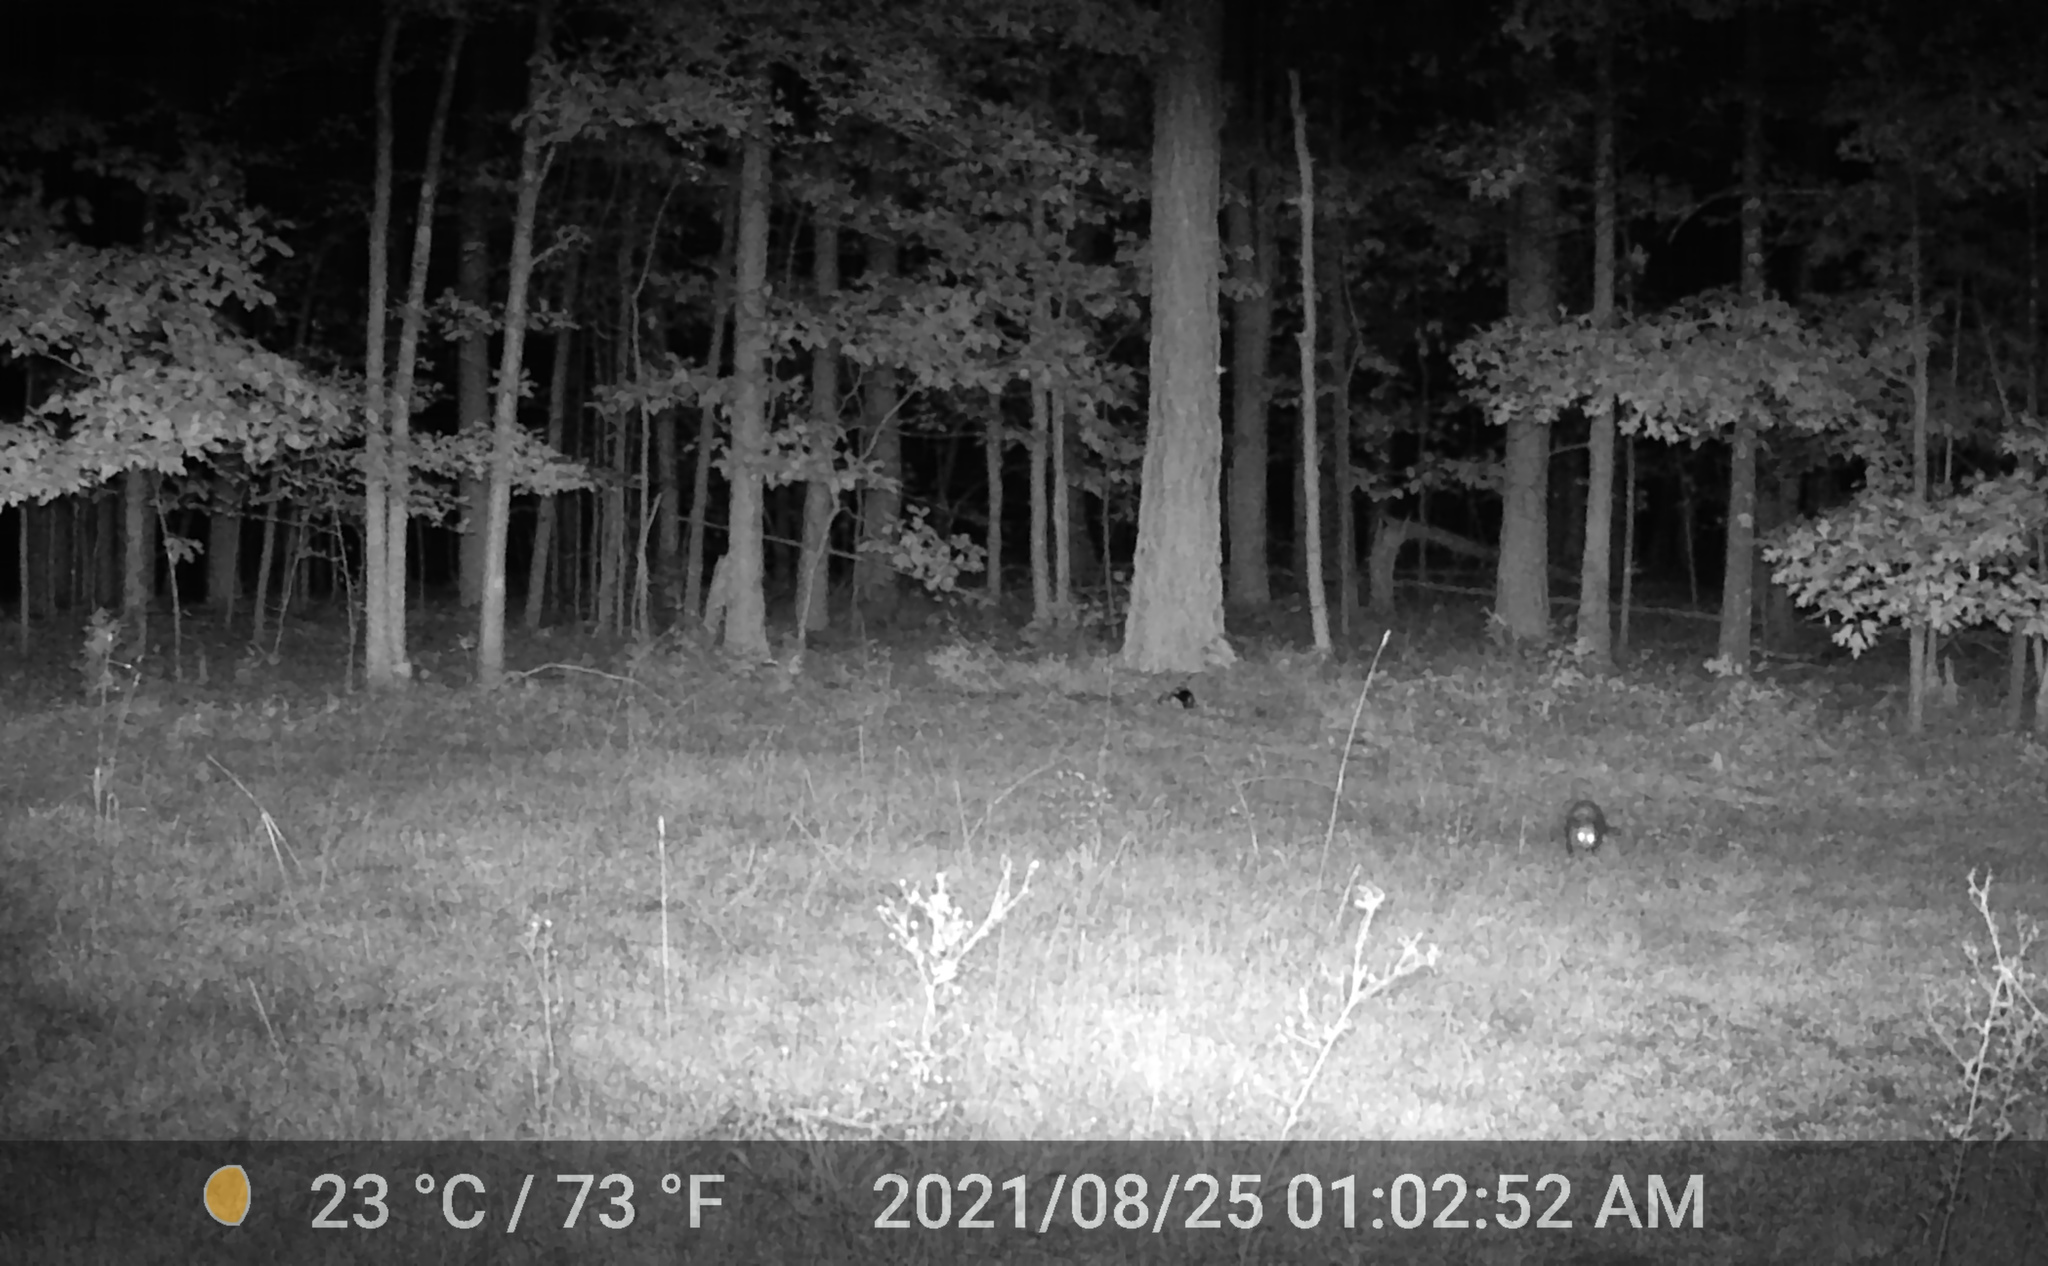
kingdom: Animalia
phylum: Chordata
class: Mammalia
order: Didelphimorphia
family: Didelphidae
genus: Didelphis
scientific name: Didelphis virginiana
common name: Virginia opossum
